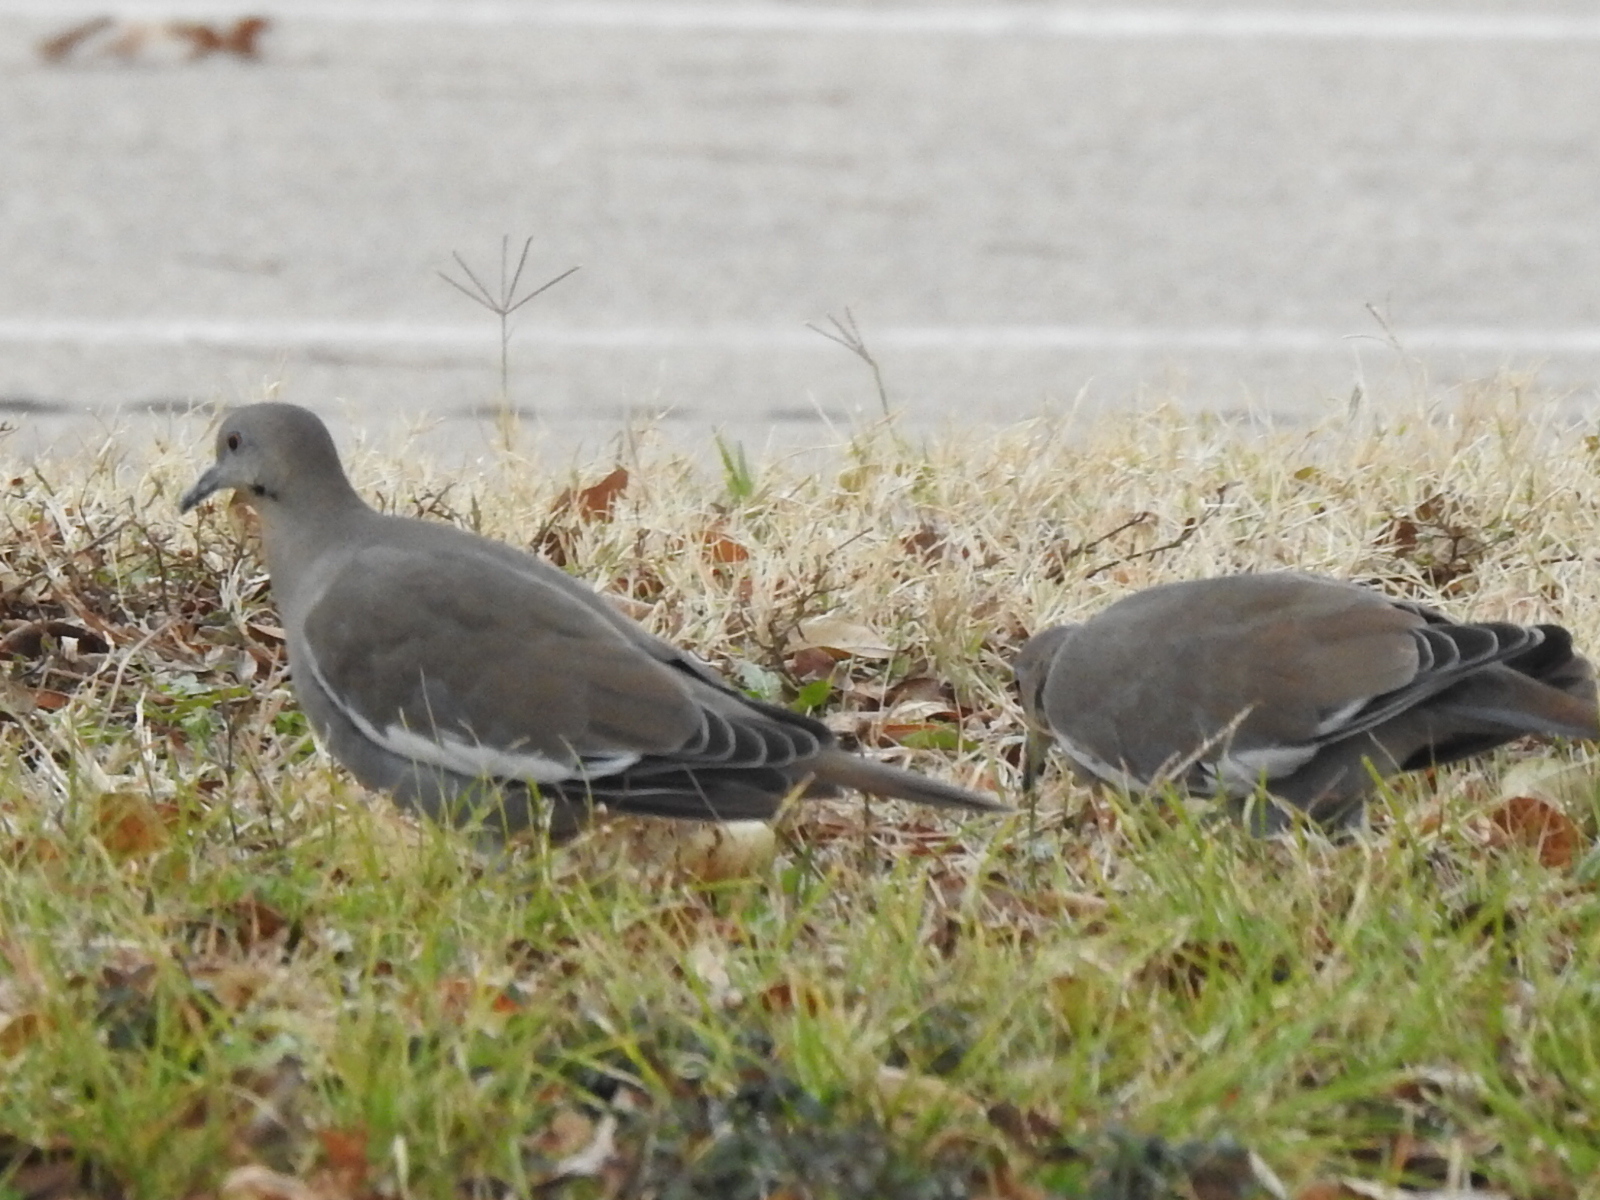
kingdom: Animalia
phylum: Chordata
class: Aves
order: Columbiformes
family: Columbidae
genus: Zenaida
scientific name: Zenaida asiatica
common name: White-winged dove
